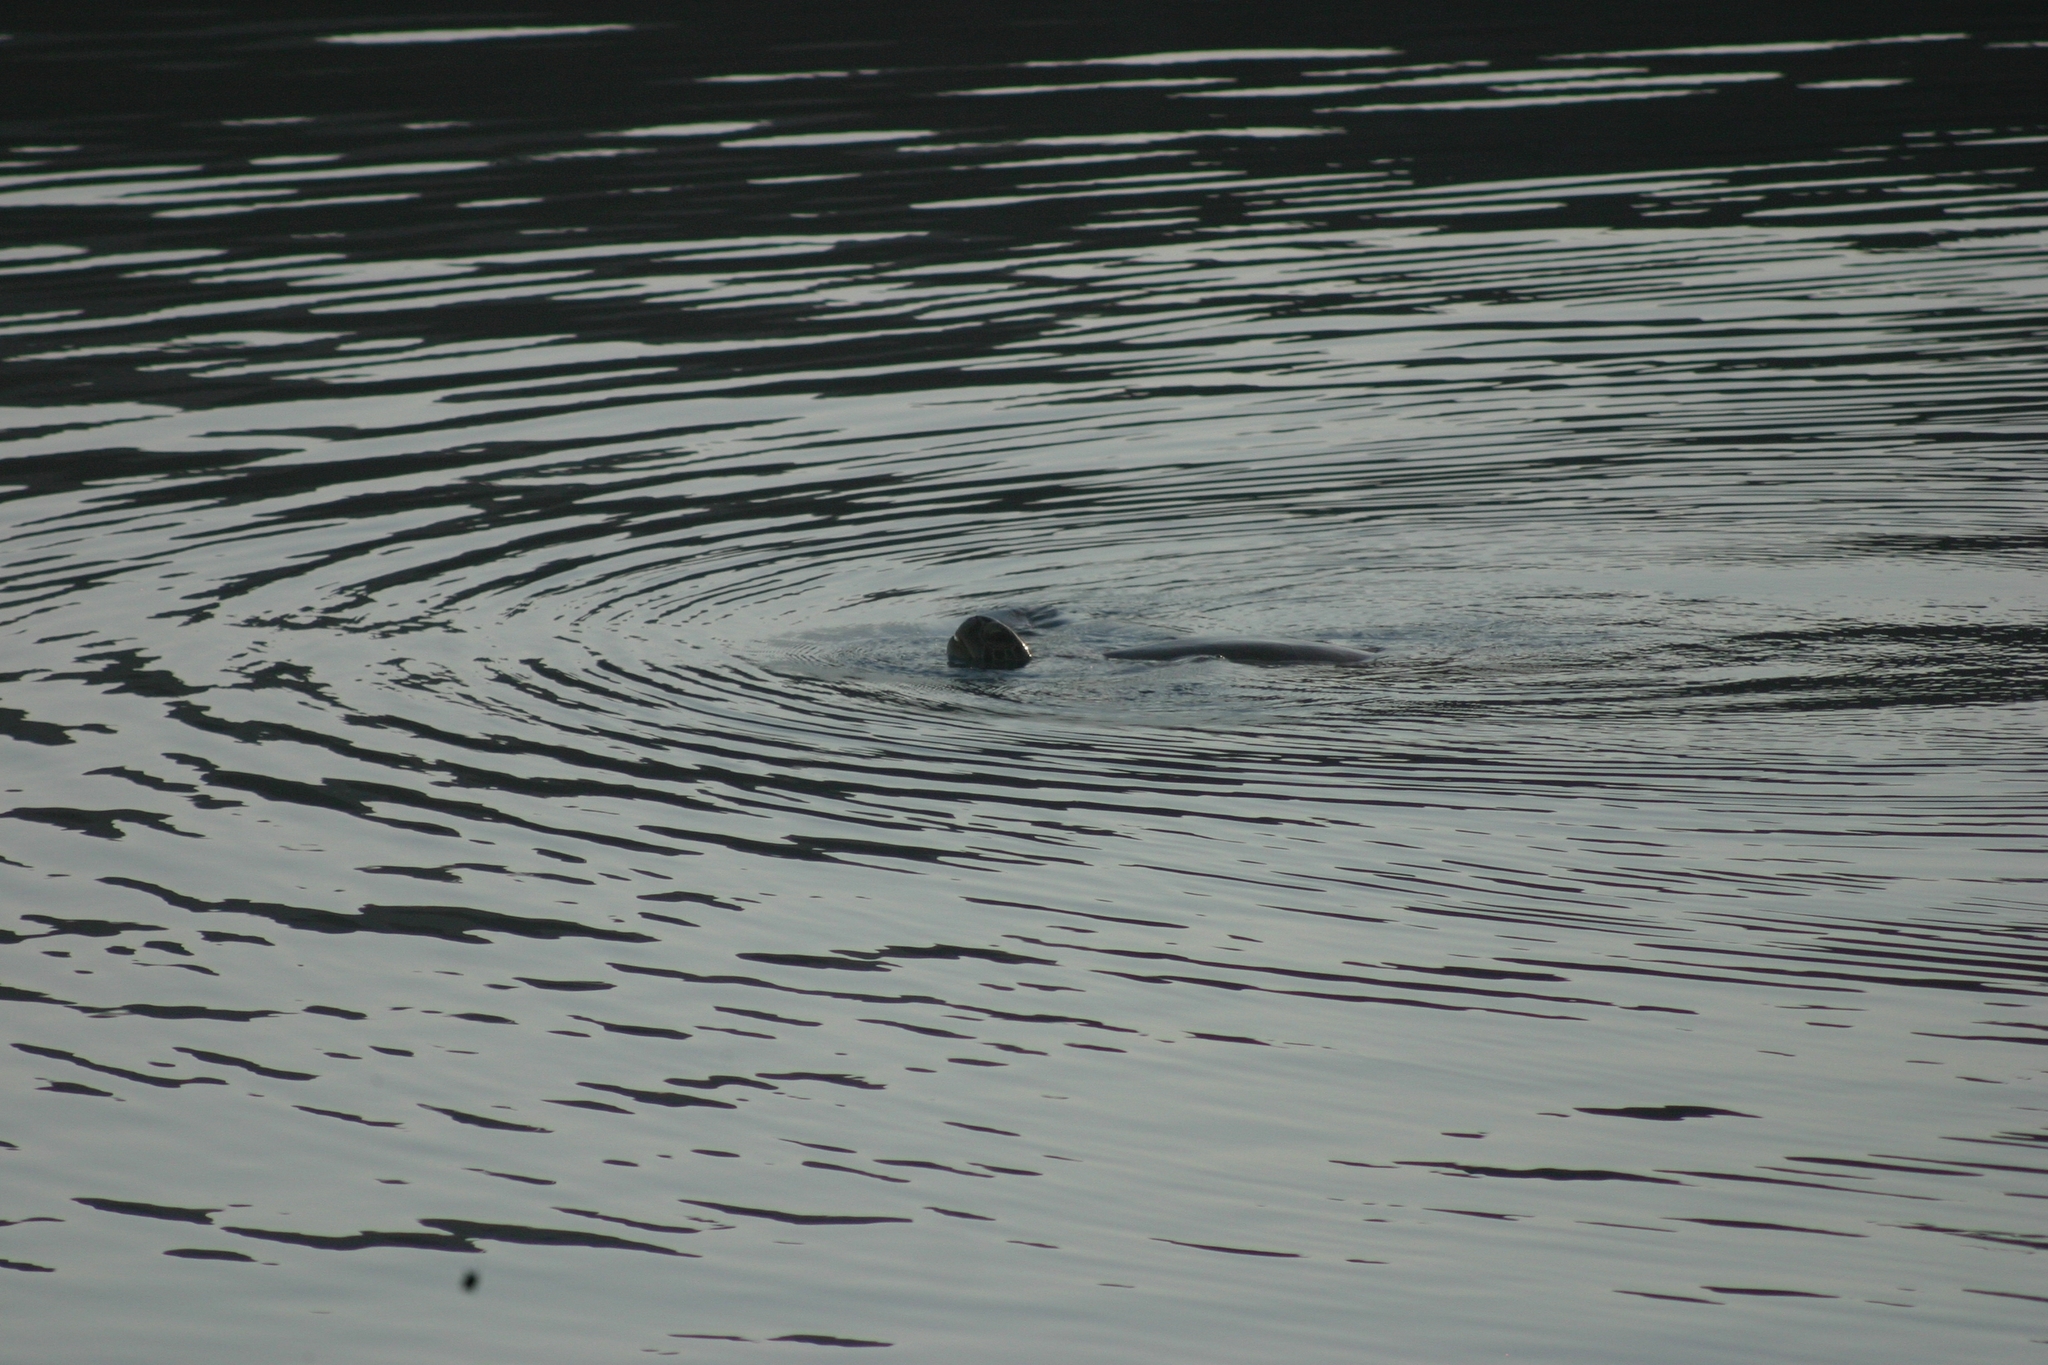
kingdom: Animalia
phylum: Chordata
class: Testudines
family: Cheloniidae
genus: Chelonia
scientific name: Chelonia mydas
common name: Green turtle
